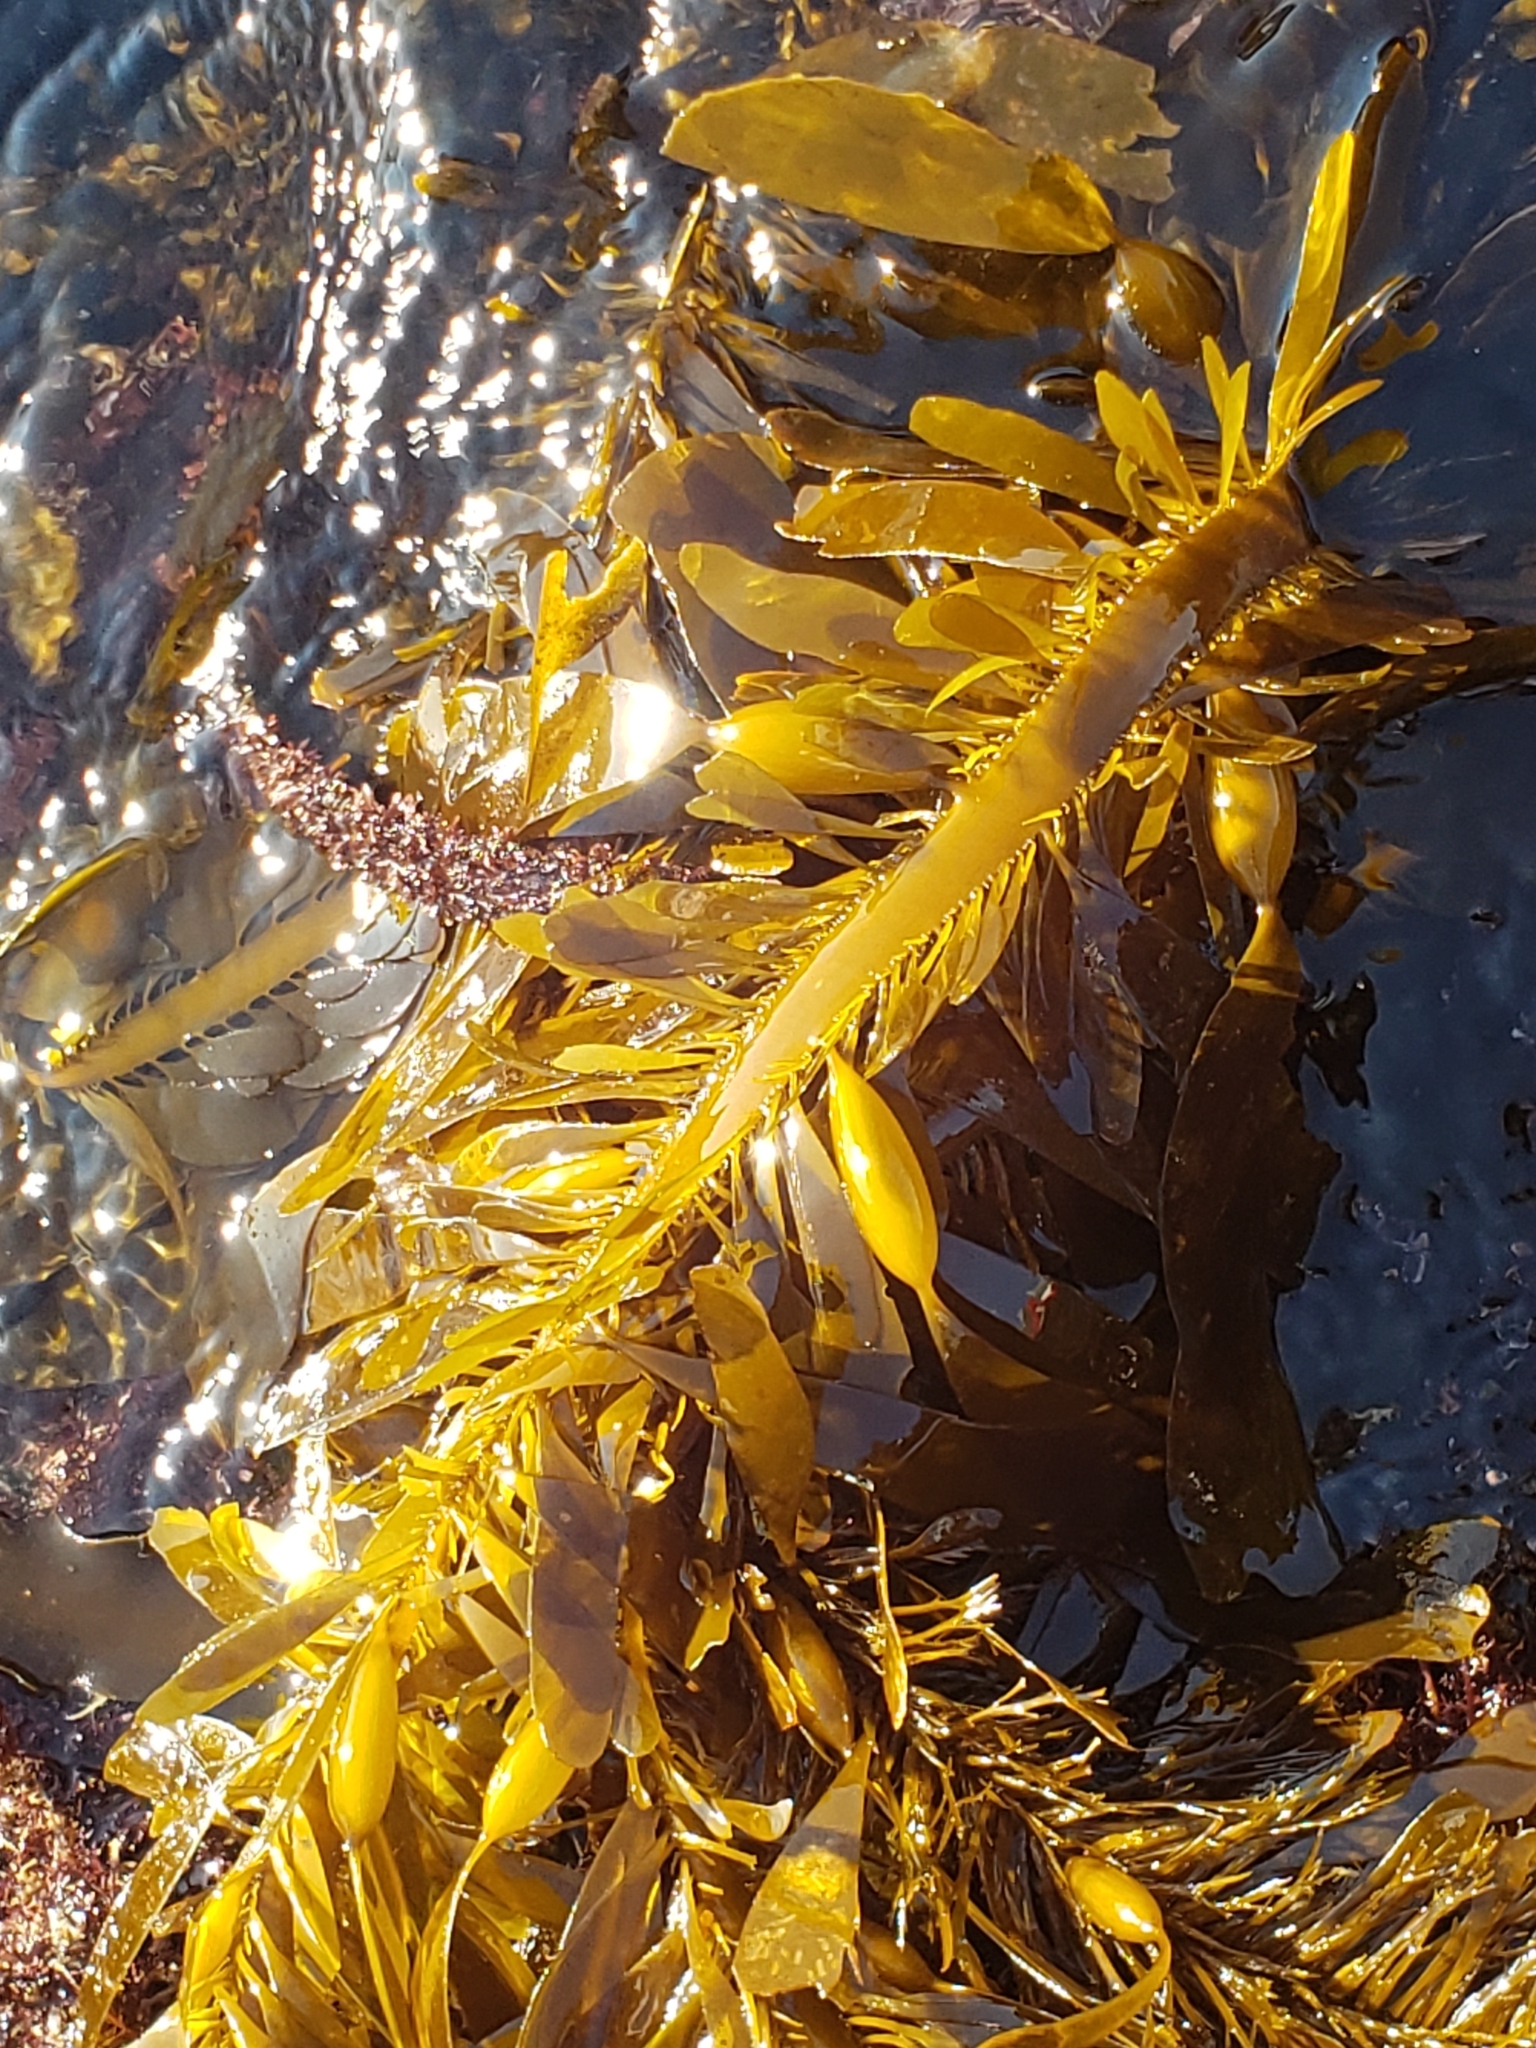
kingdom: Chromista
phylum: Ochrophyta
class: Phaeophyceae
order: Laminariales
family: Lessoniaceae
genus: Egregia
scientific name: Egregia menziesii
